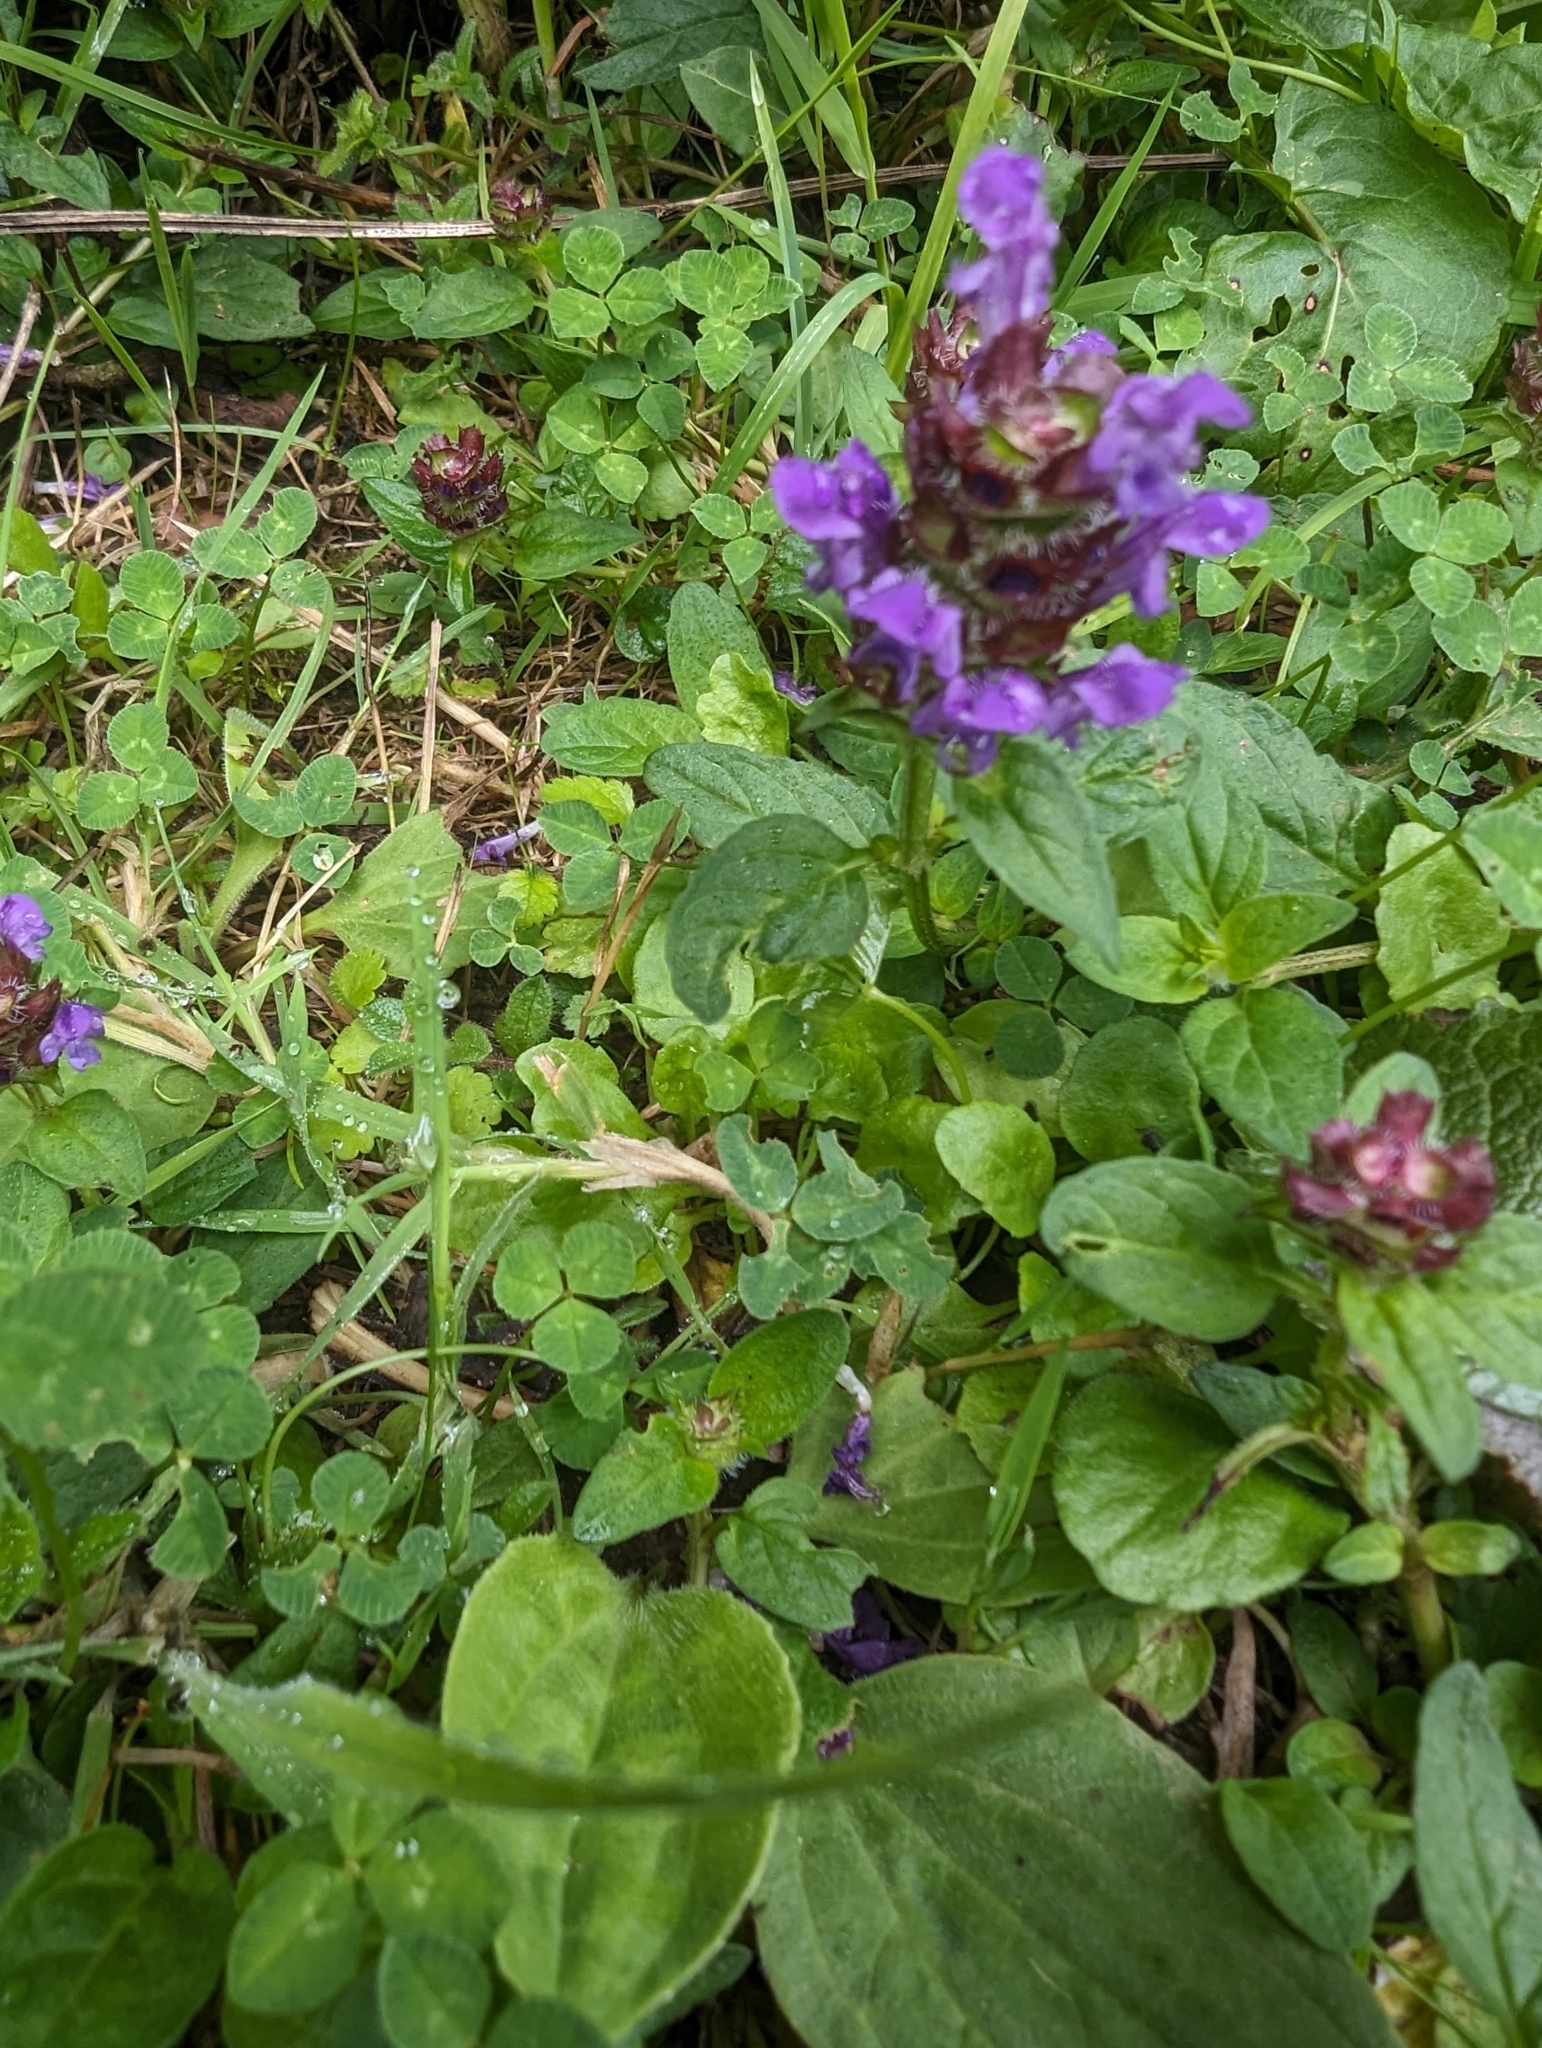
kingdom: Plantae
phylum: Tracheophyta
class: Magnoliopsida
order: Lamiales
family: Lamiaceae
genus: Prunella
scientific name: Prunella vulgaris
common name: Heal-all
